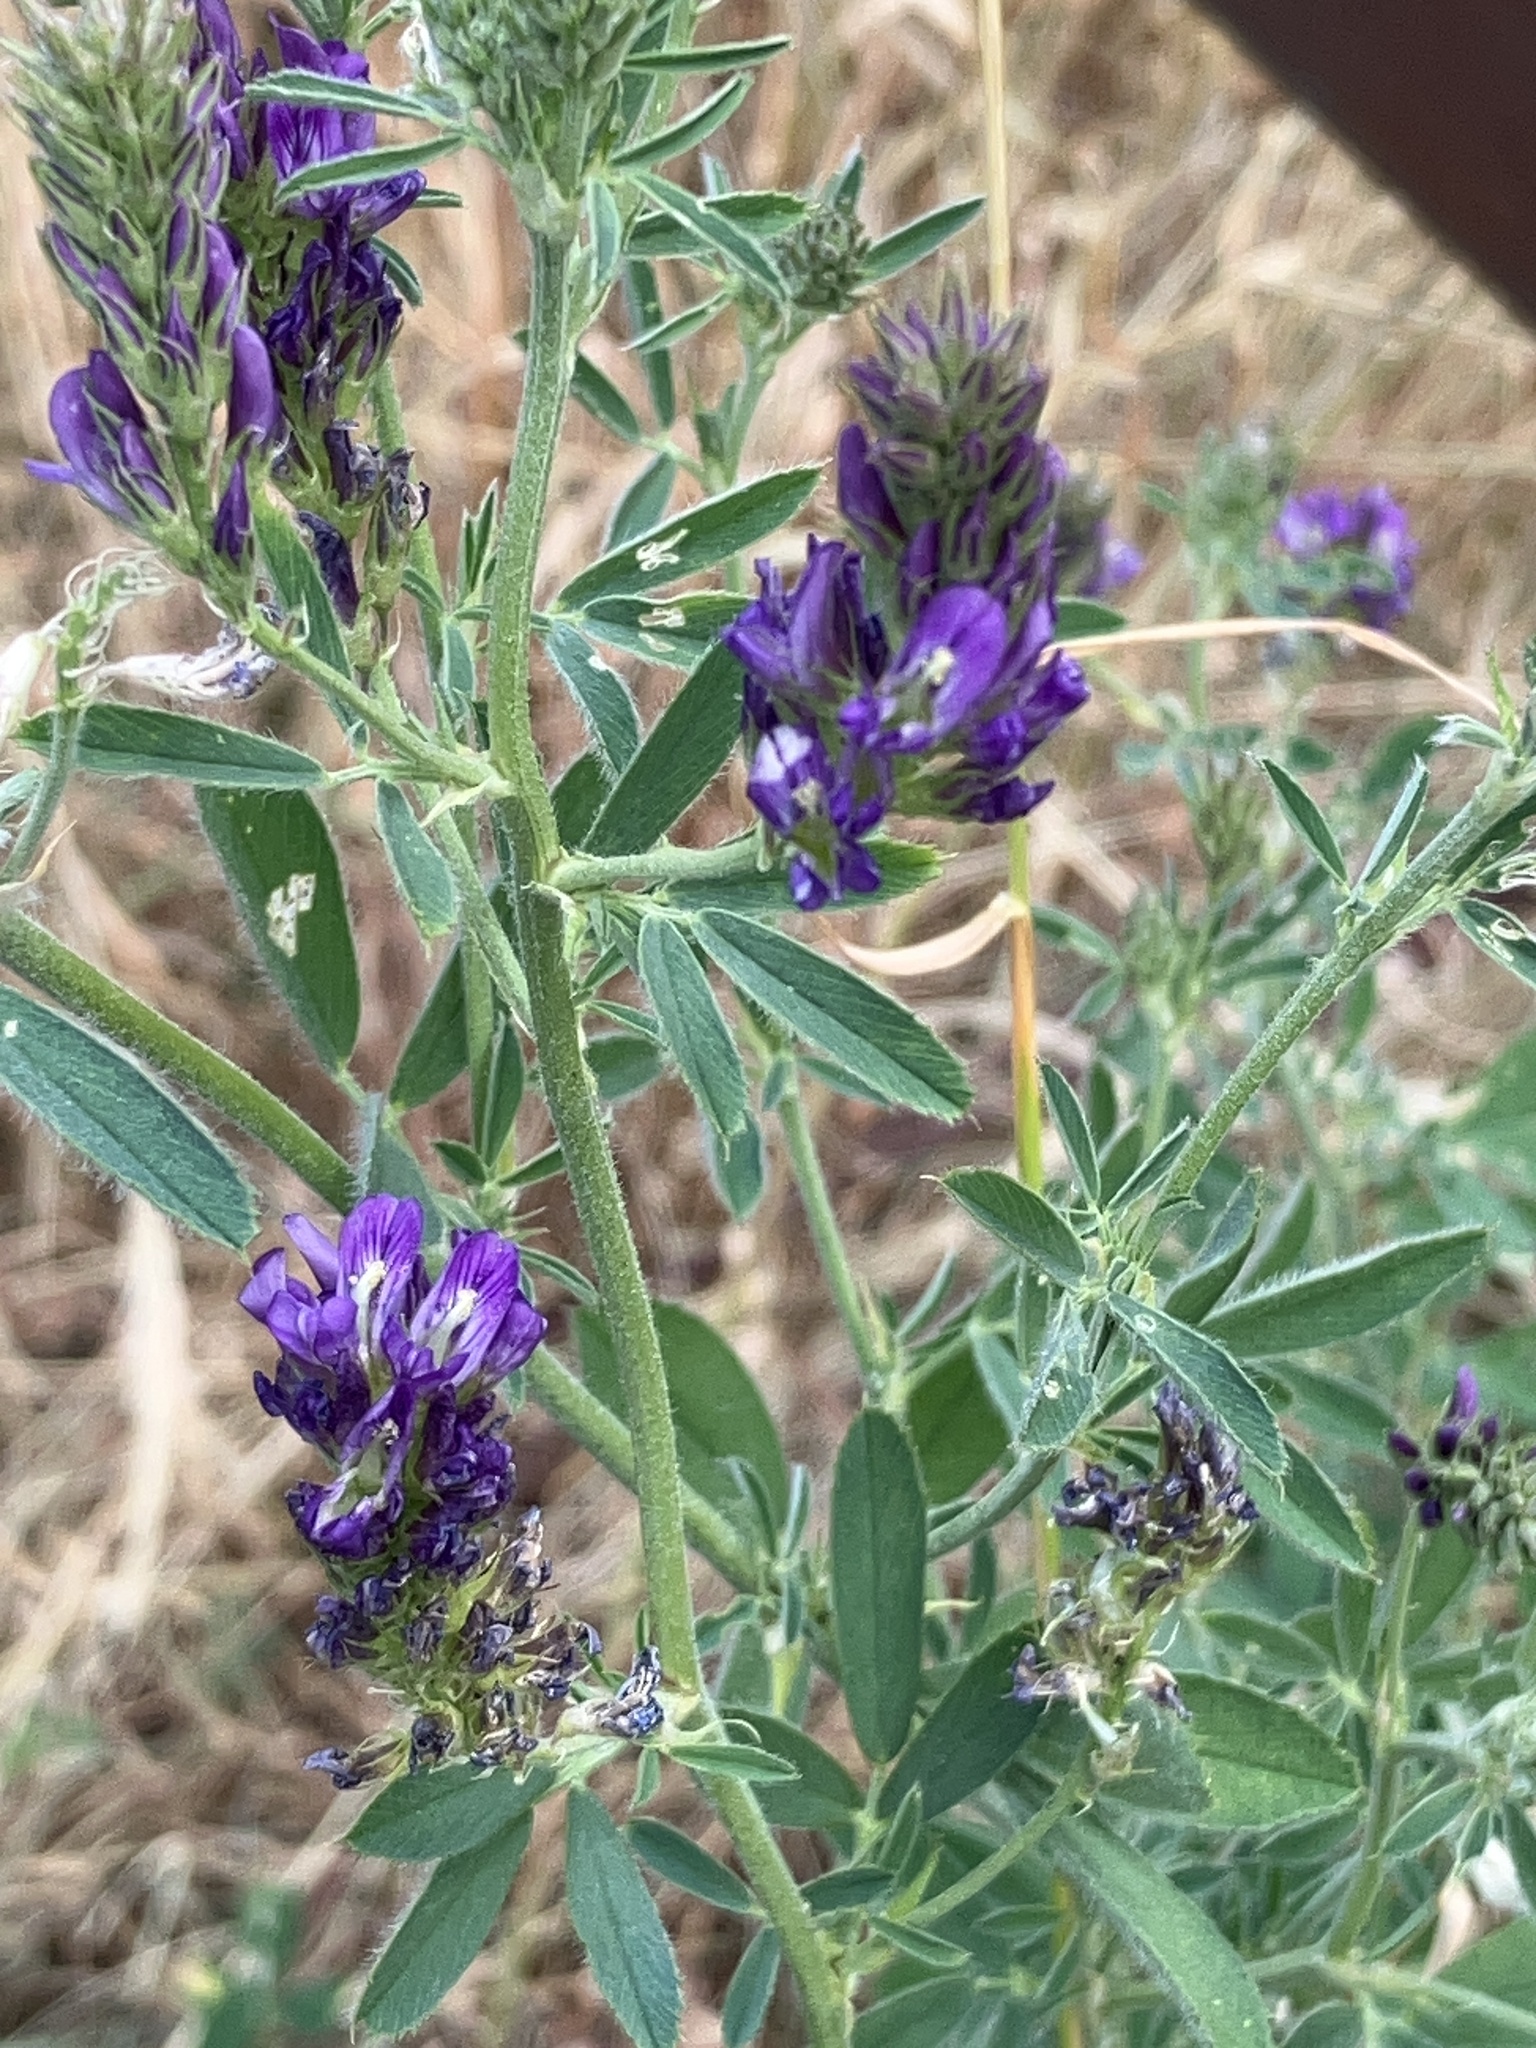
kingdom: Plantae
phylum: Tracheophyta
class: Magnoliopsida
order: Fabales
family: Fabaceae
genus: Medicago
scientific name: Medicago sativa
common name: Alfalfa
